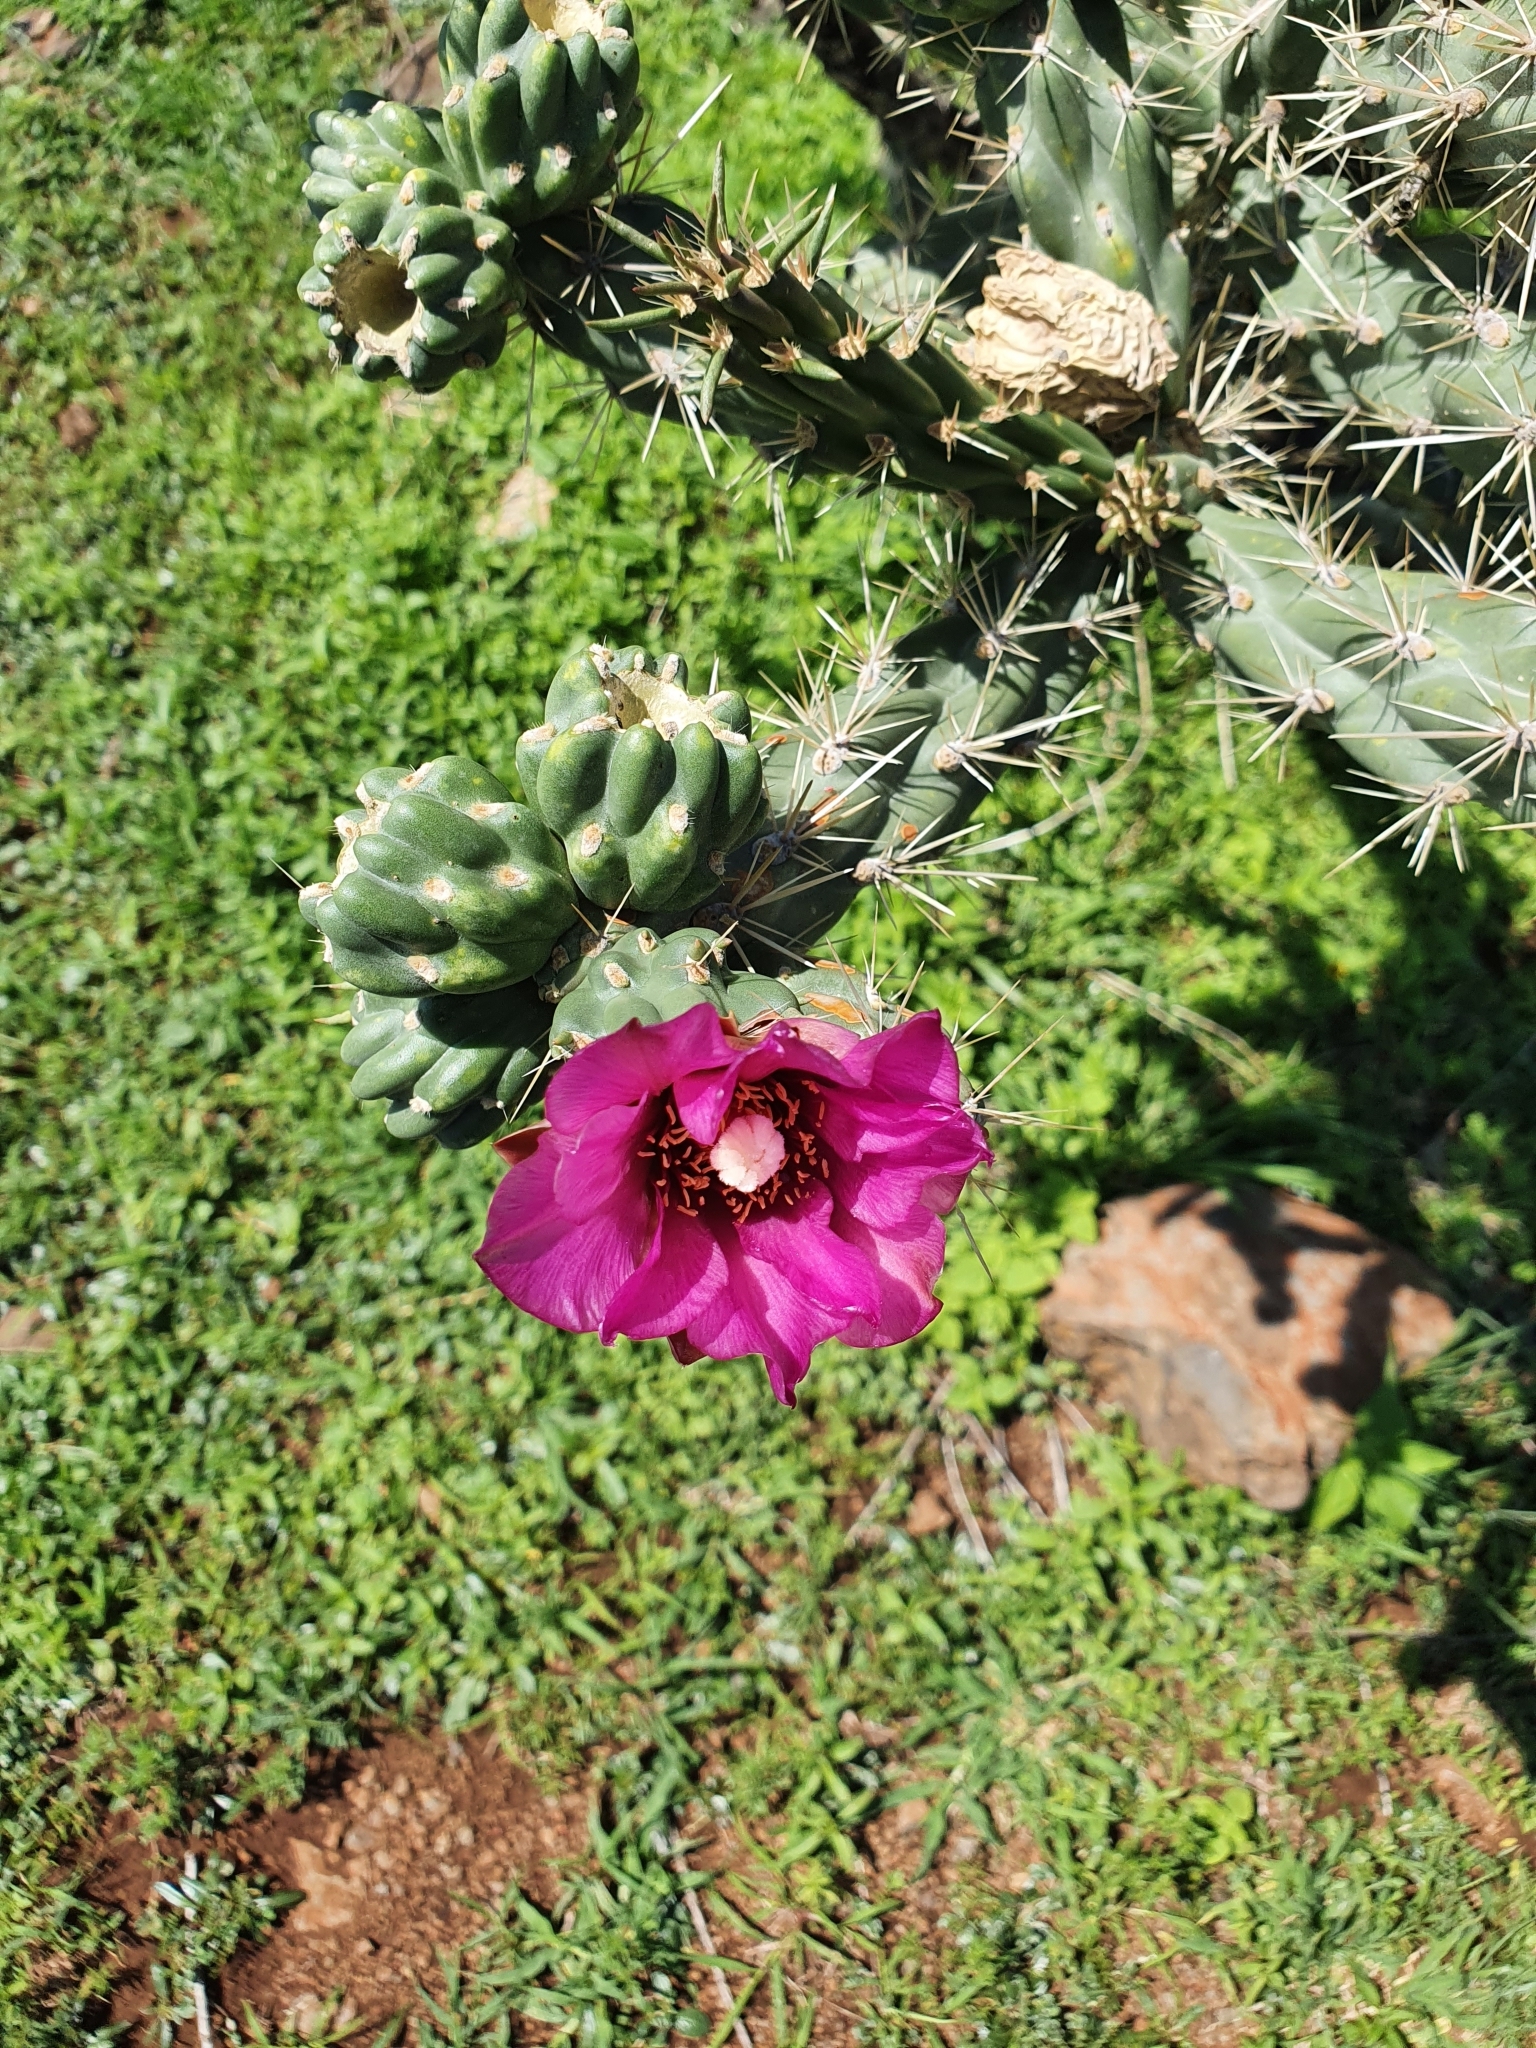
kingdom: Plantae
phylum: Tracheophyta
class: Magnoliopsida
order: Caryophyllales
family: Cactaceae
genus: Cylindropuntia
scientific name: Cylindropuntia imbricata
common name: Candelabrum cactus
